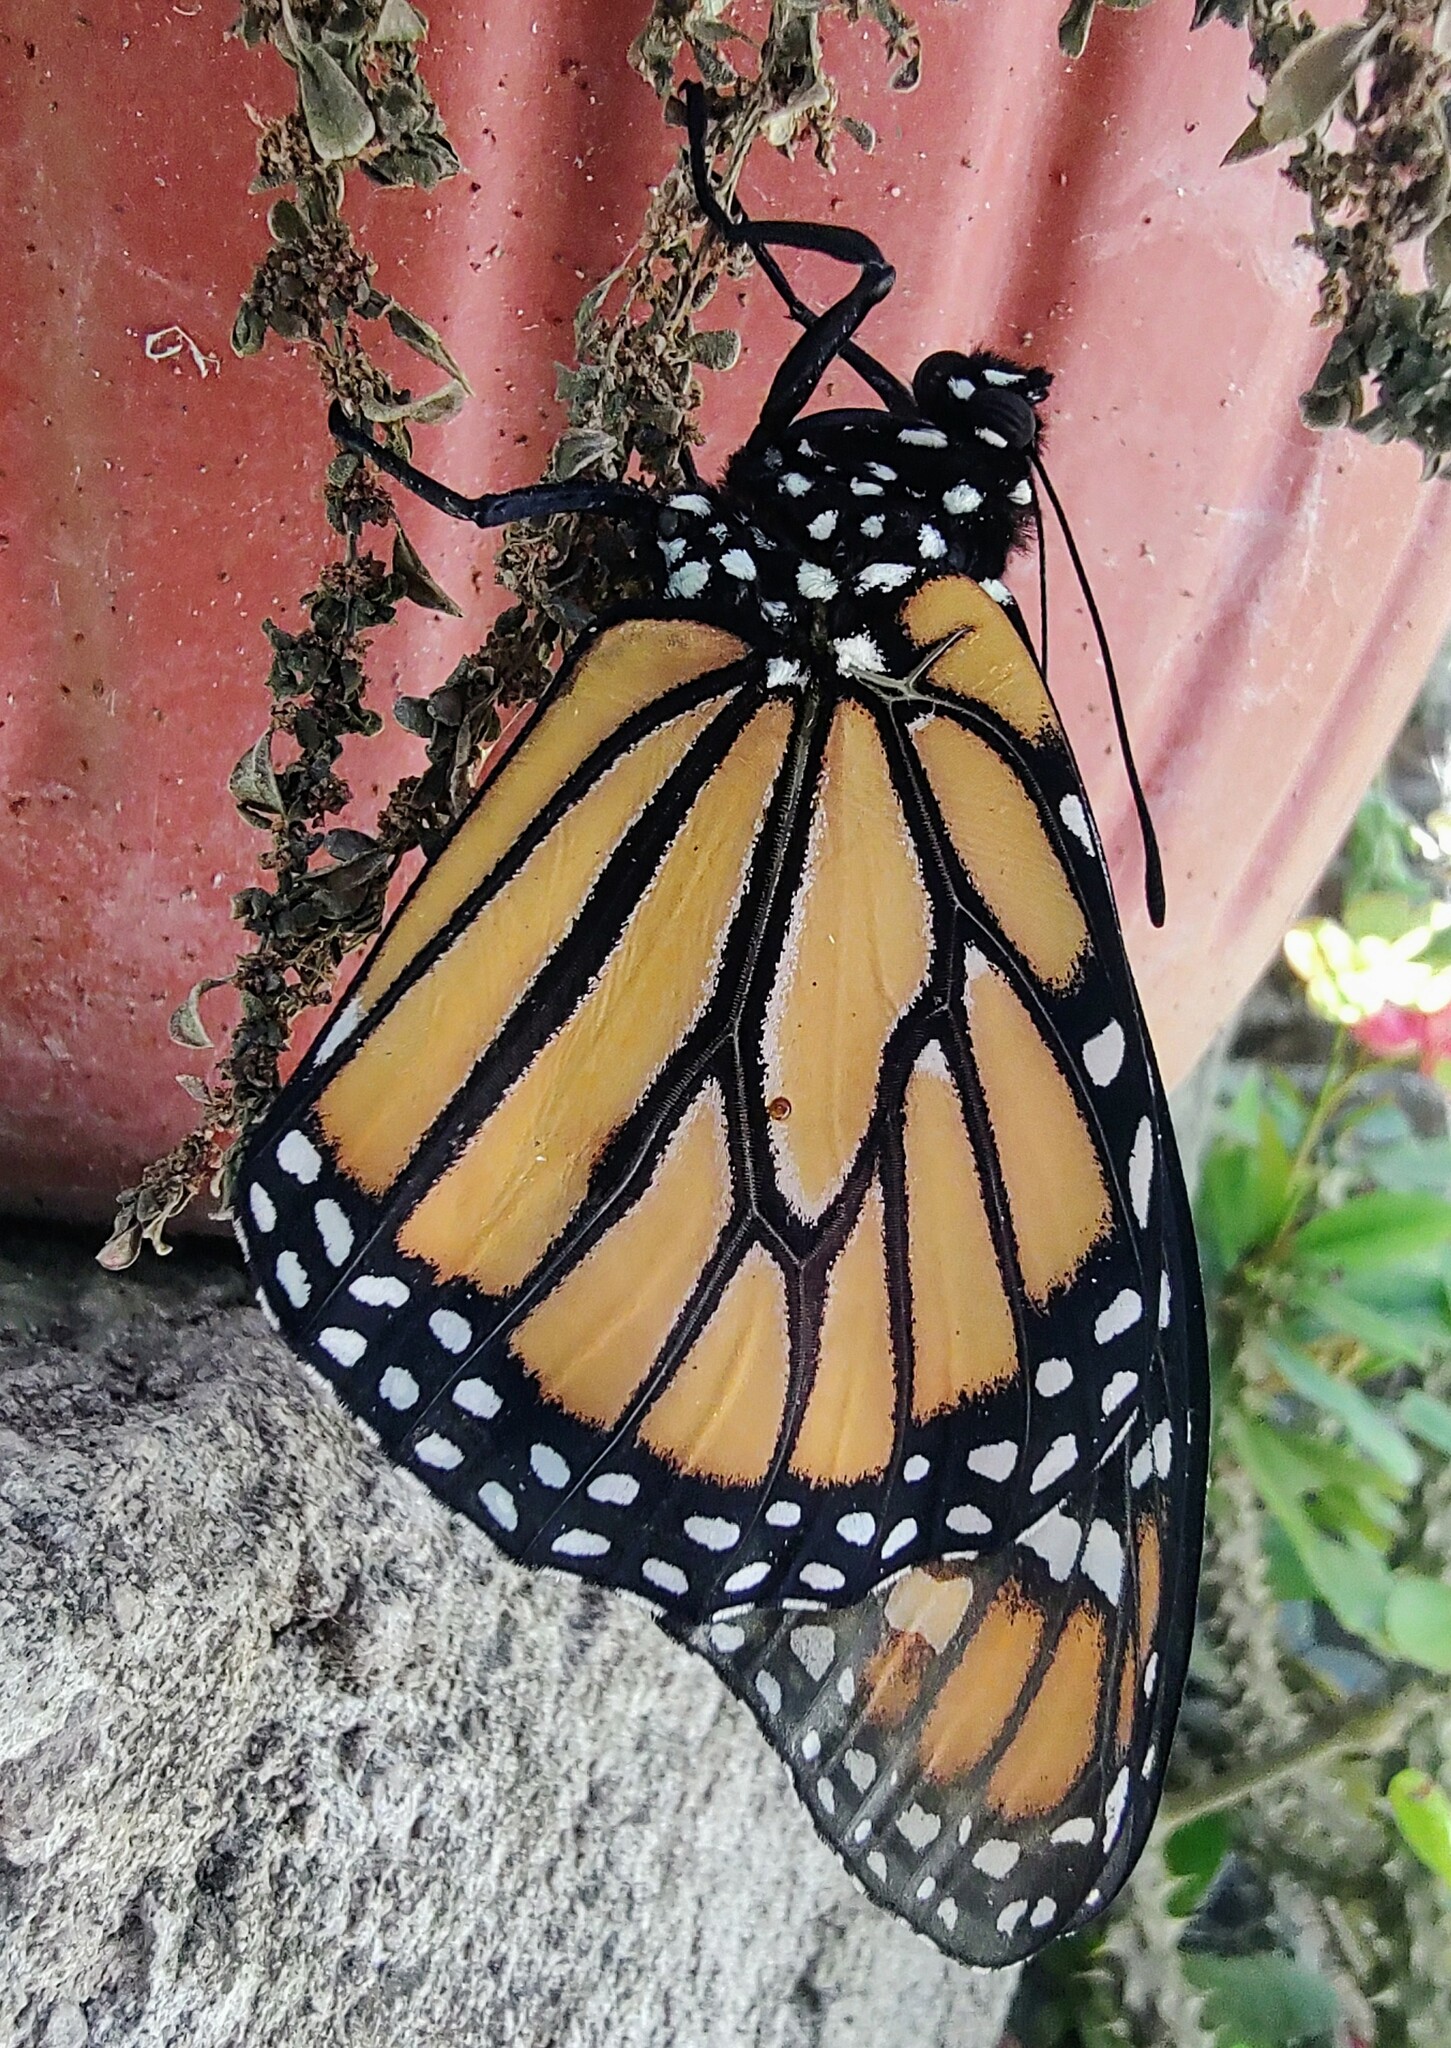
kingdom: Animalia
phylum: Arthropoda
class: Insecta
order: Lepidoptera
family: Nymphalidae
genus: Danaus
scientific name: Danaus plexippus
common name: Monarch
